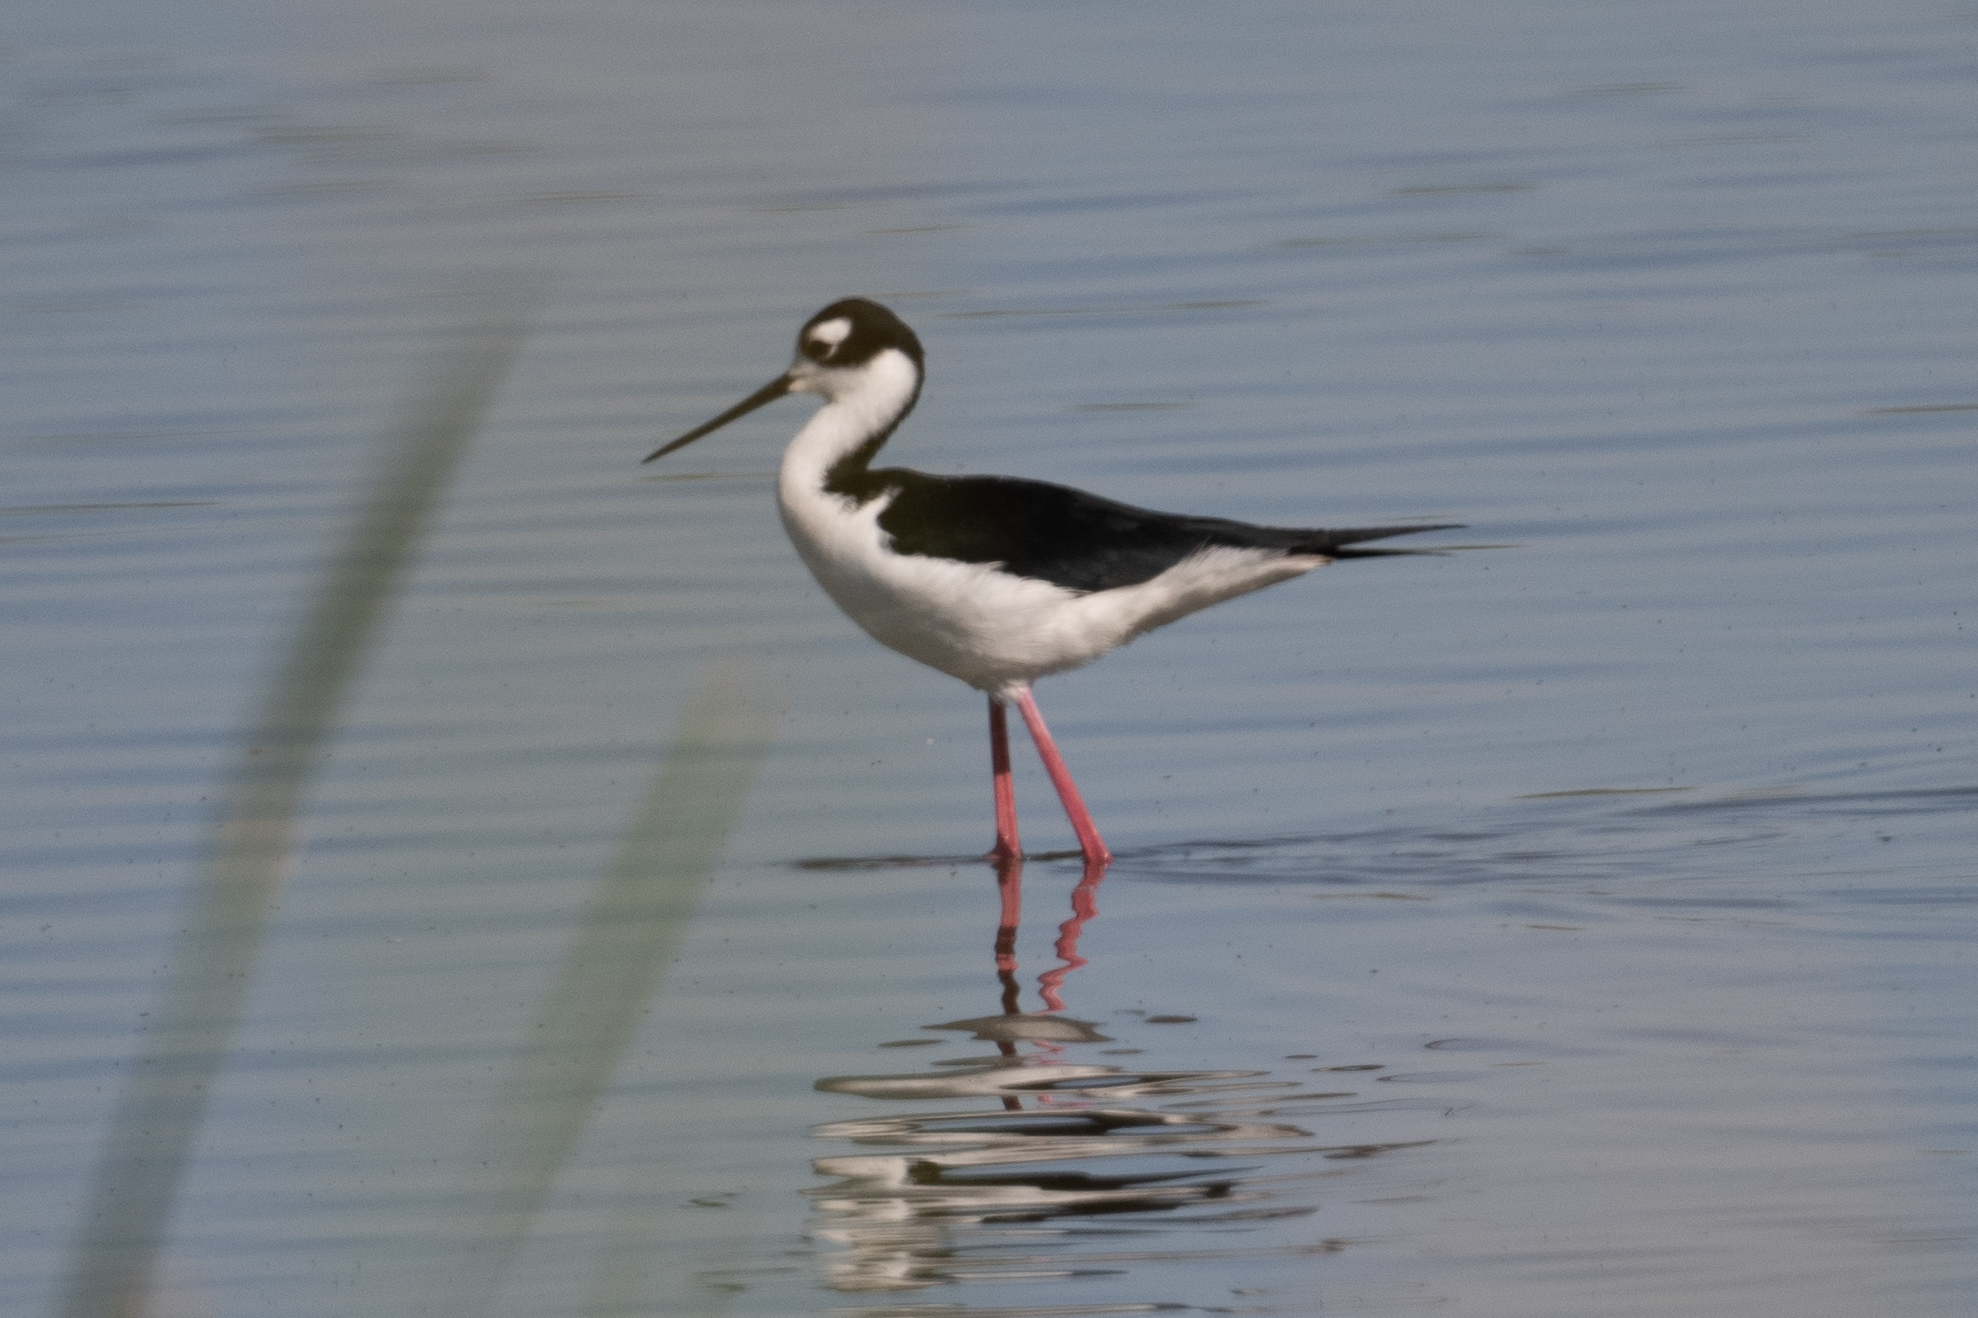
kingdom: Animalia
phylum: Chordata
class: Aves
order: Charadriiformes
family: Recurvirostridae
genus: Himantopus
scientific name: Himantopus mexicanus
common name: Black-necked stilt
